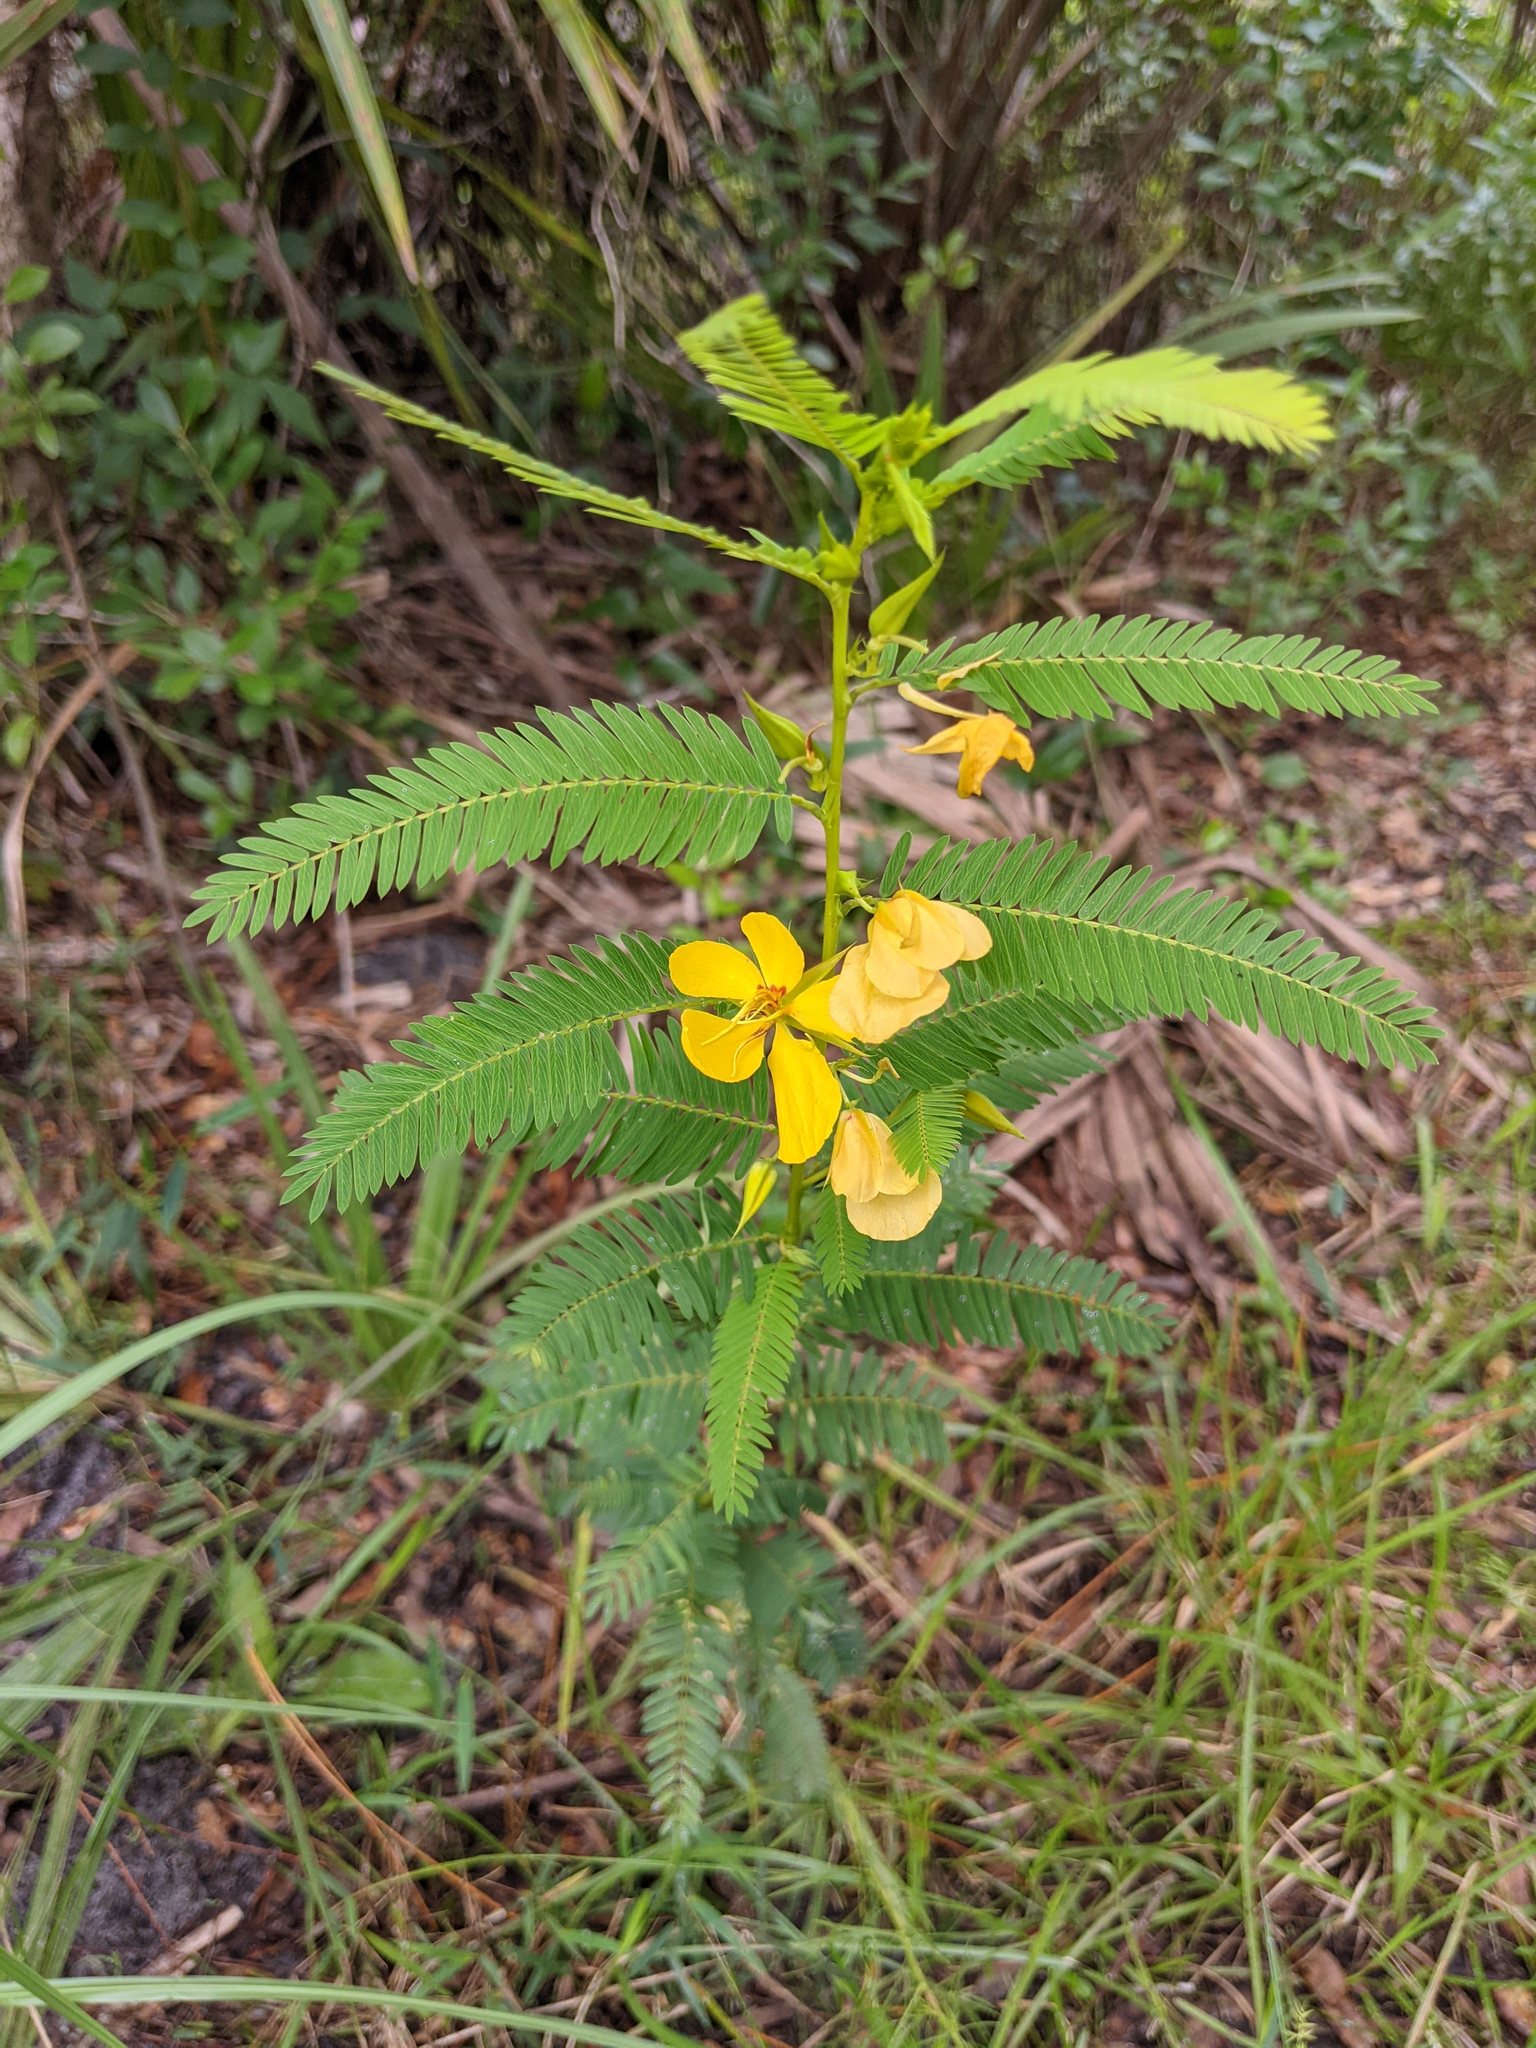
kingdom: Plantae
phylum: Tracheophyta
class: Magnoliopsida
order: Fabales
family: Fabaceae
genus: Chamaecrista
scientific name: Chamaecrista fasciculata
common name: Golden cassia
